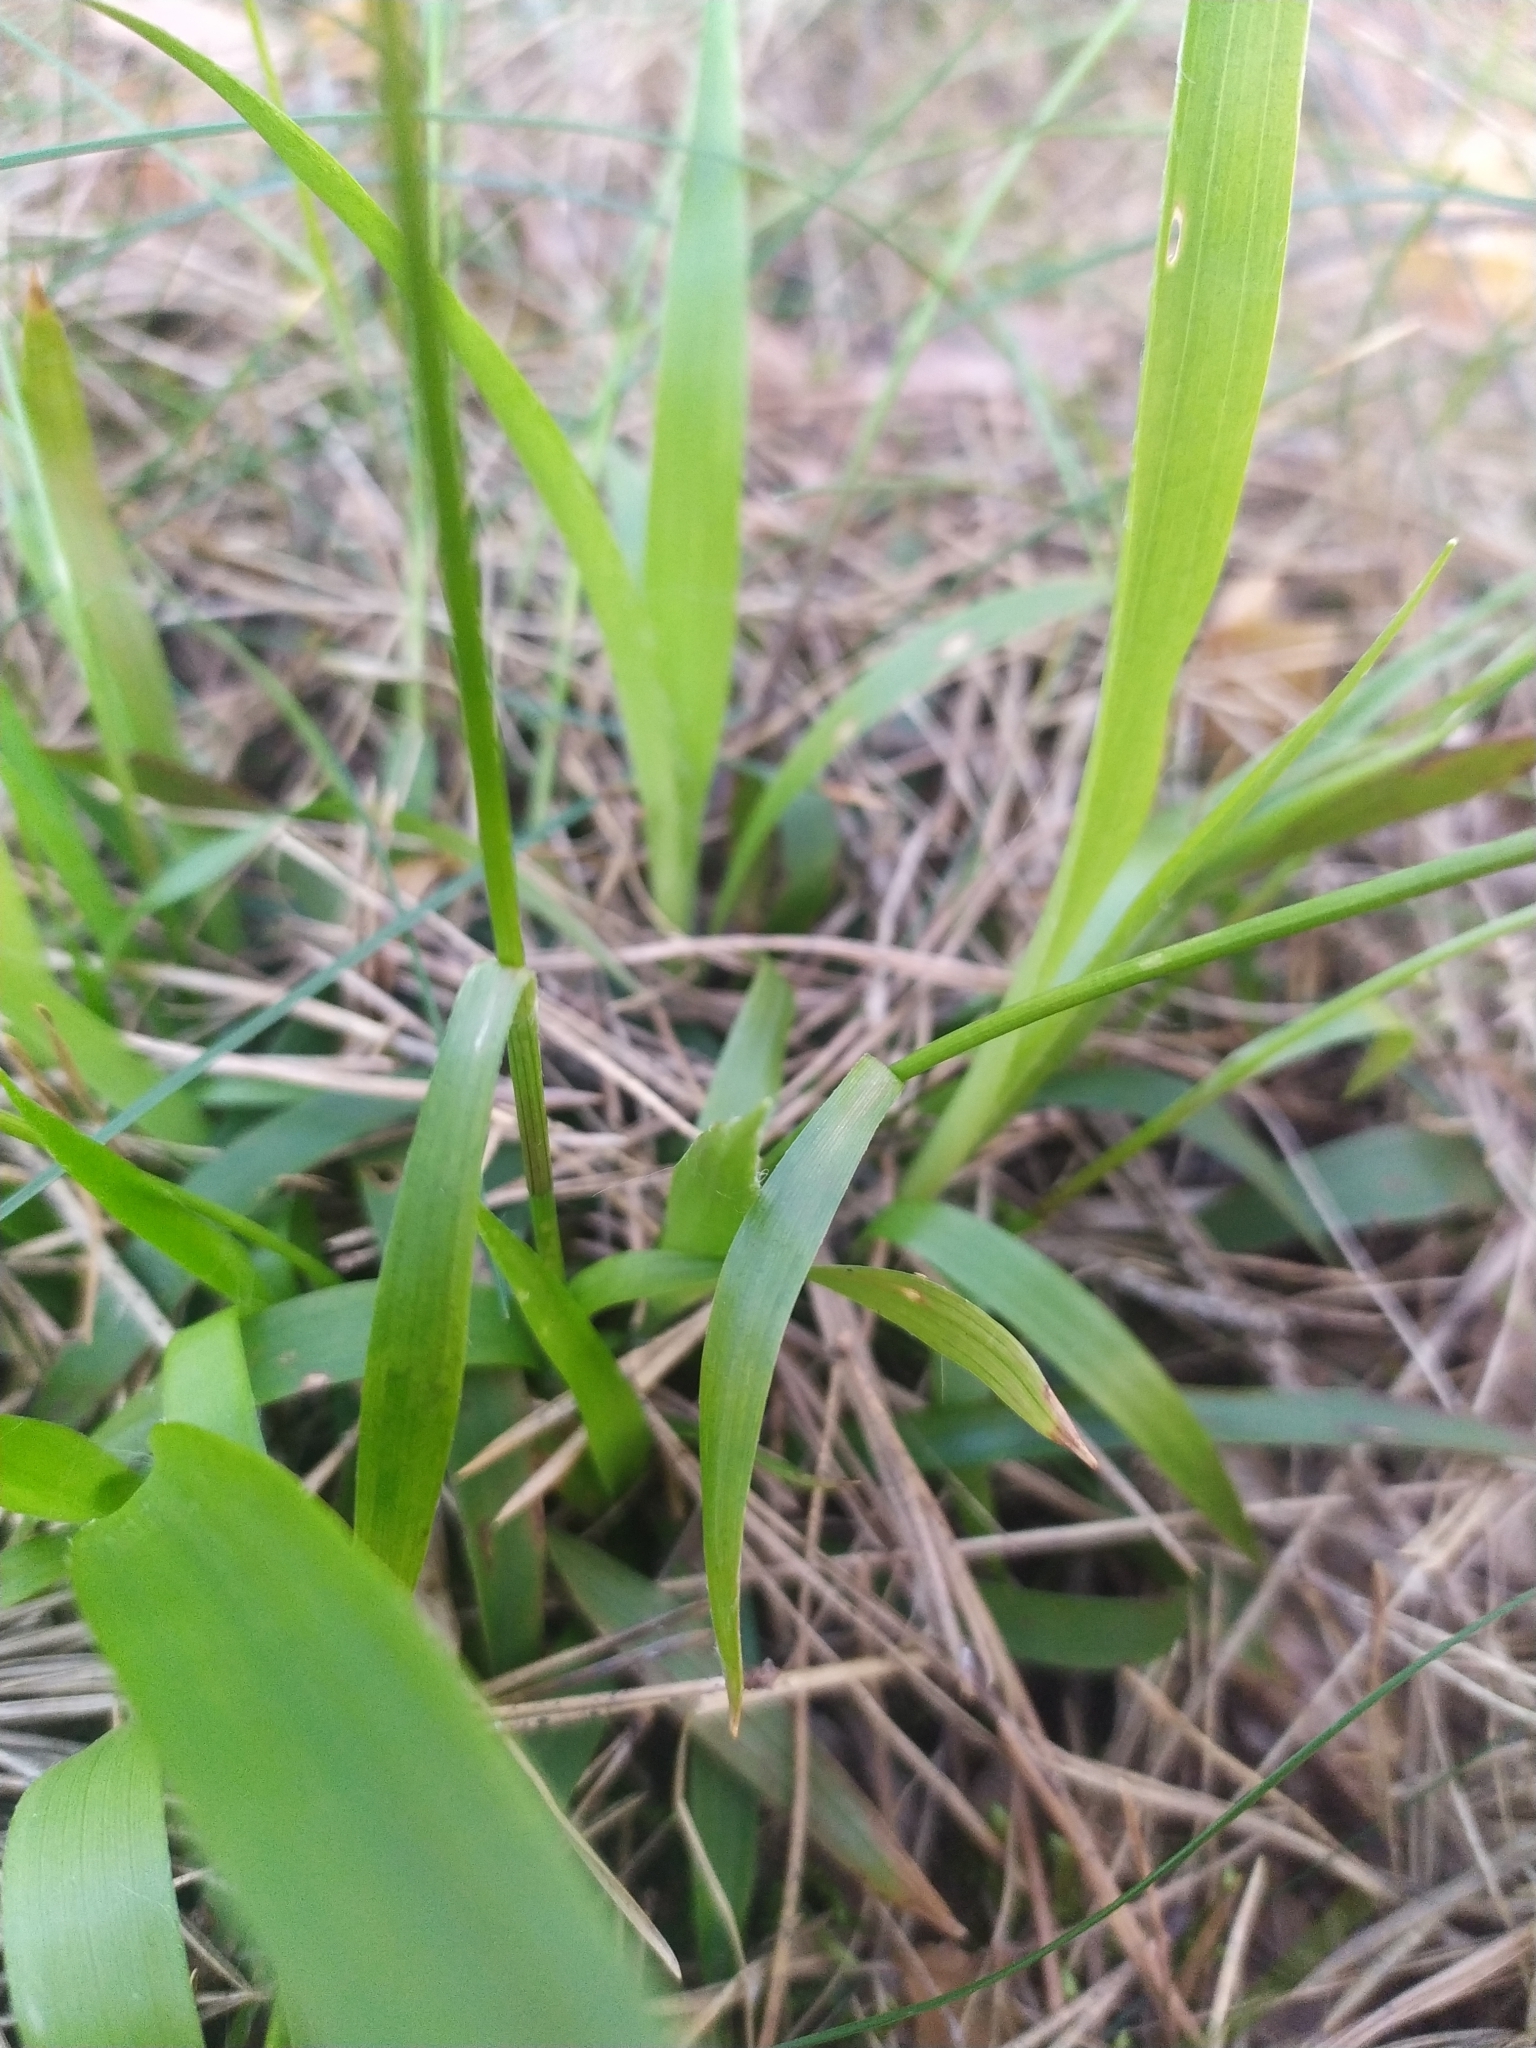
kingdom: Plantae
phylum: Tracheophyta
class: Liliopsida
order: Poales
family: Juncaceae
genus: Luzula
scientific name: Luzula pilosa
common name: Hairy wood-rush
